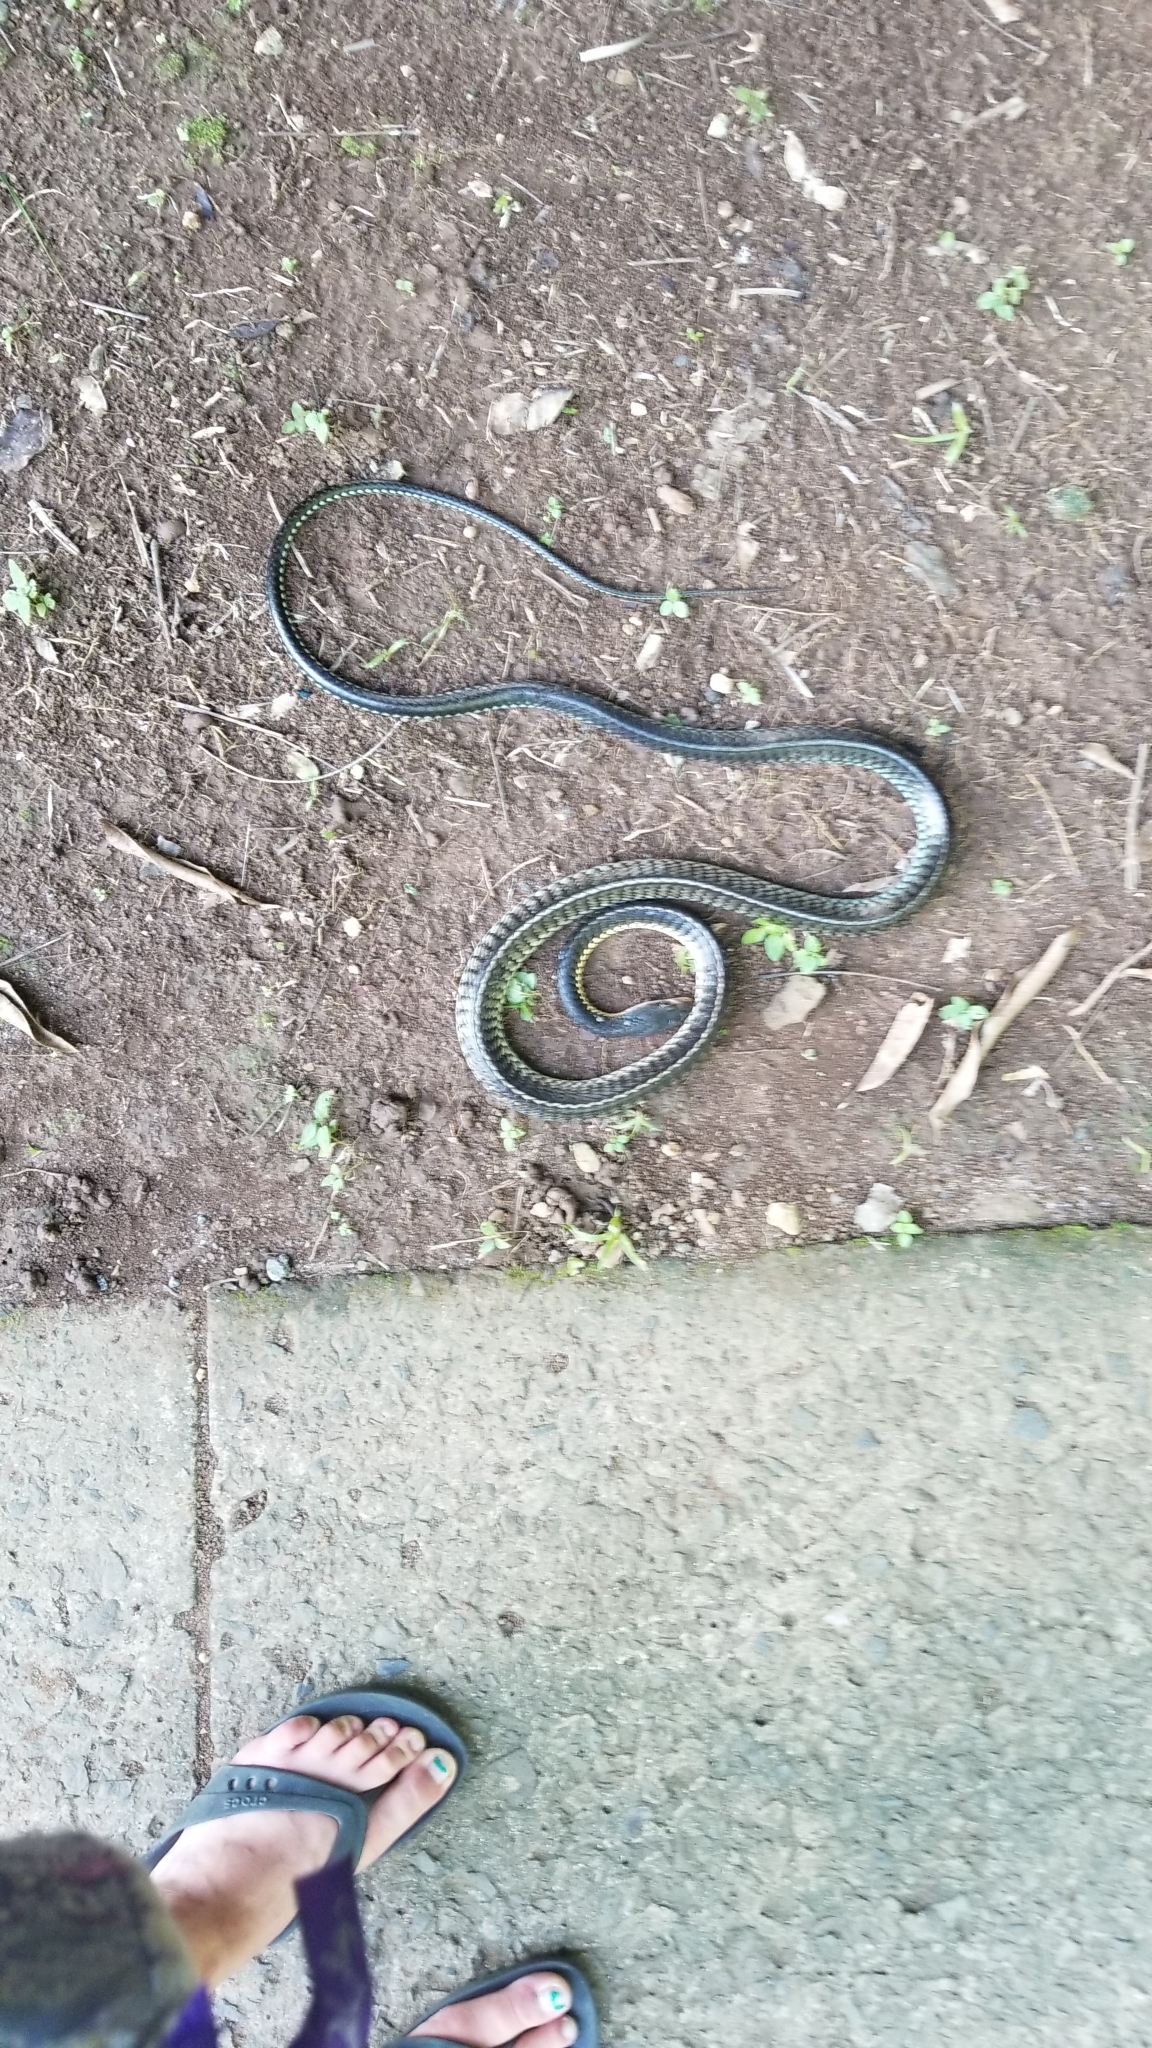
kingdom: Animalia
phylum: Chordata
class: Squamata
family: Colubridae
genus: Chironius
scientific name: Chironius flavopictus
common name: Sipo
